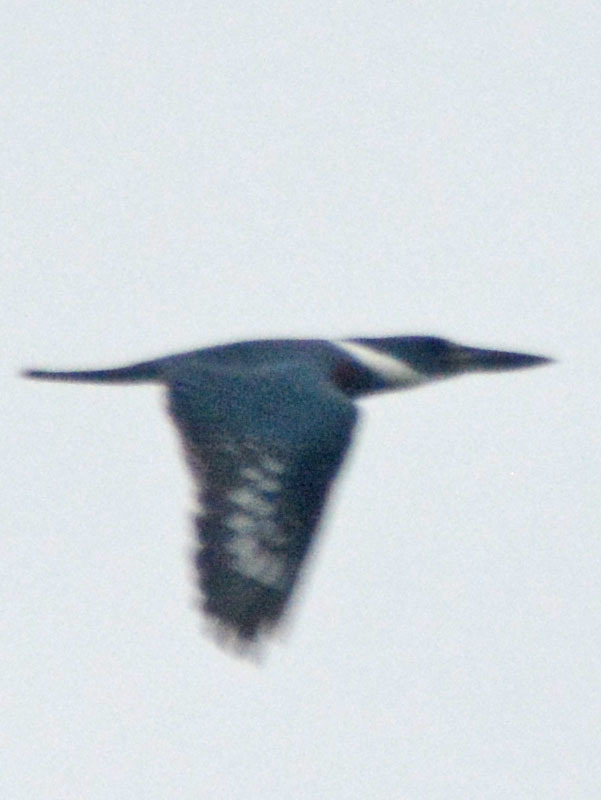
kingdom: Animalia
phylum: Chordata
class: Aves
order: Coraciiformes
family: Alcedinidae
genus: Megaceryle
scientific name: Megaceryle torquata
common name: Ringed kingfisher
